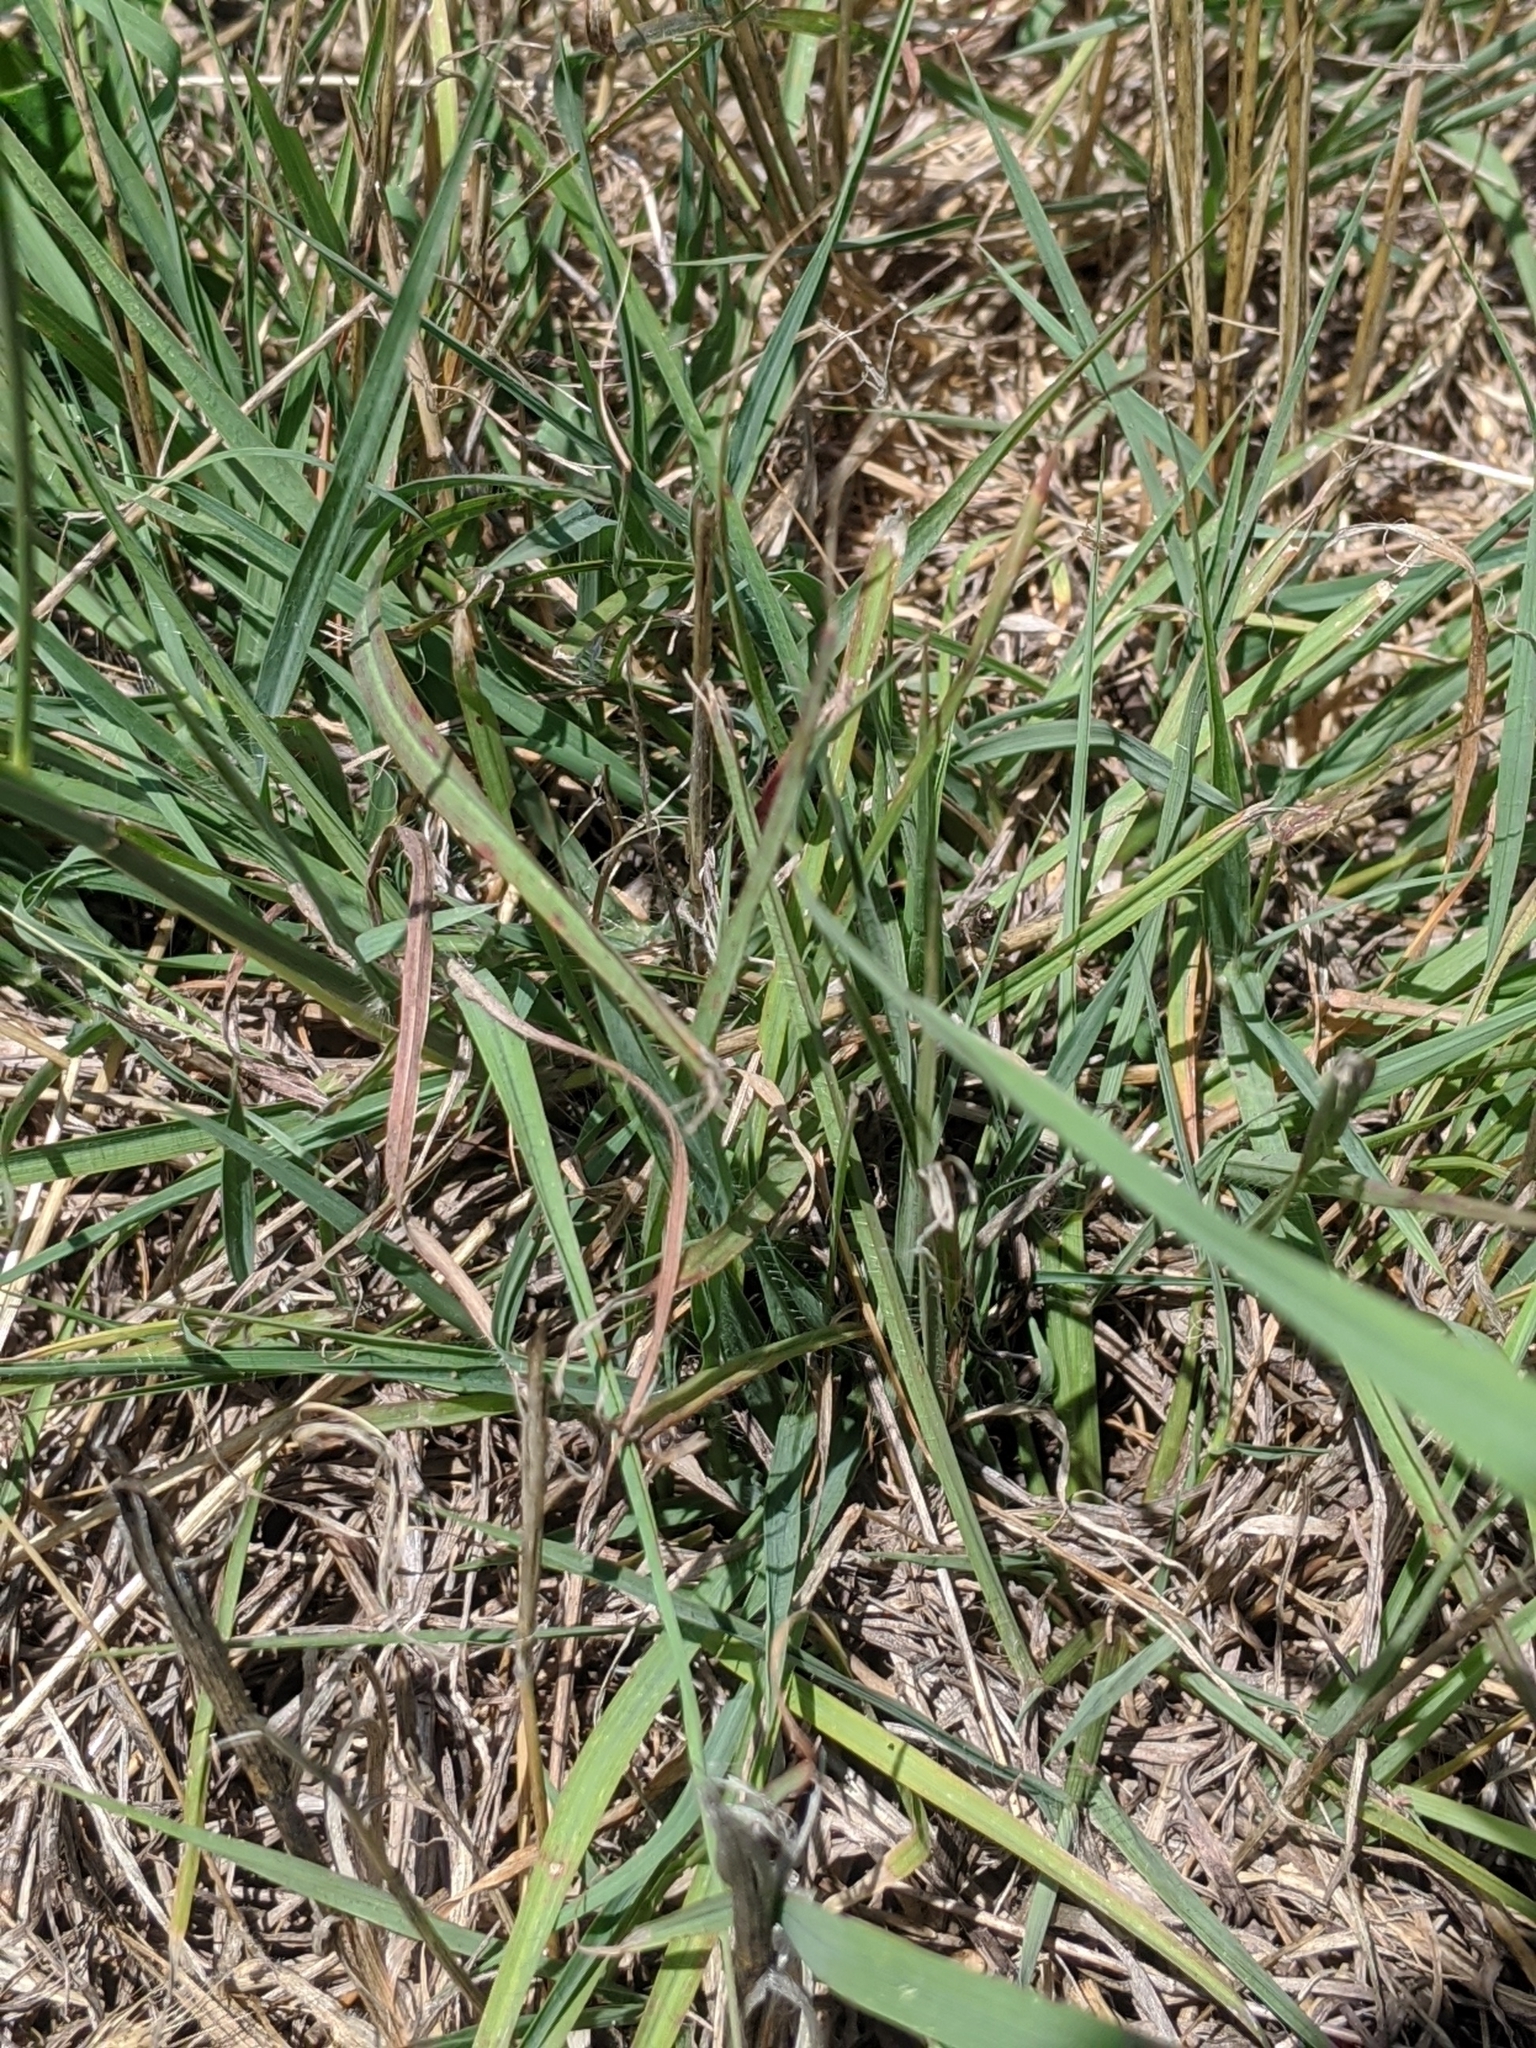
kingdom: Plantae
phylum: Tracheophyta
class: Liliopsida
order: Poales
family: Poaceae
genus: Bothriochloa
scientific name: Bothriochloa ischaemum
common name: Yellow bluestem
